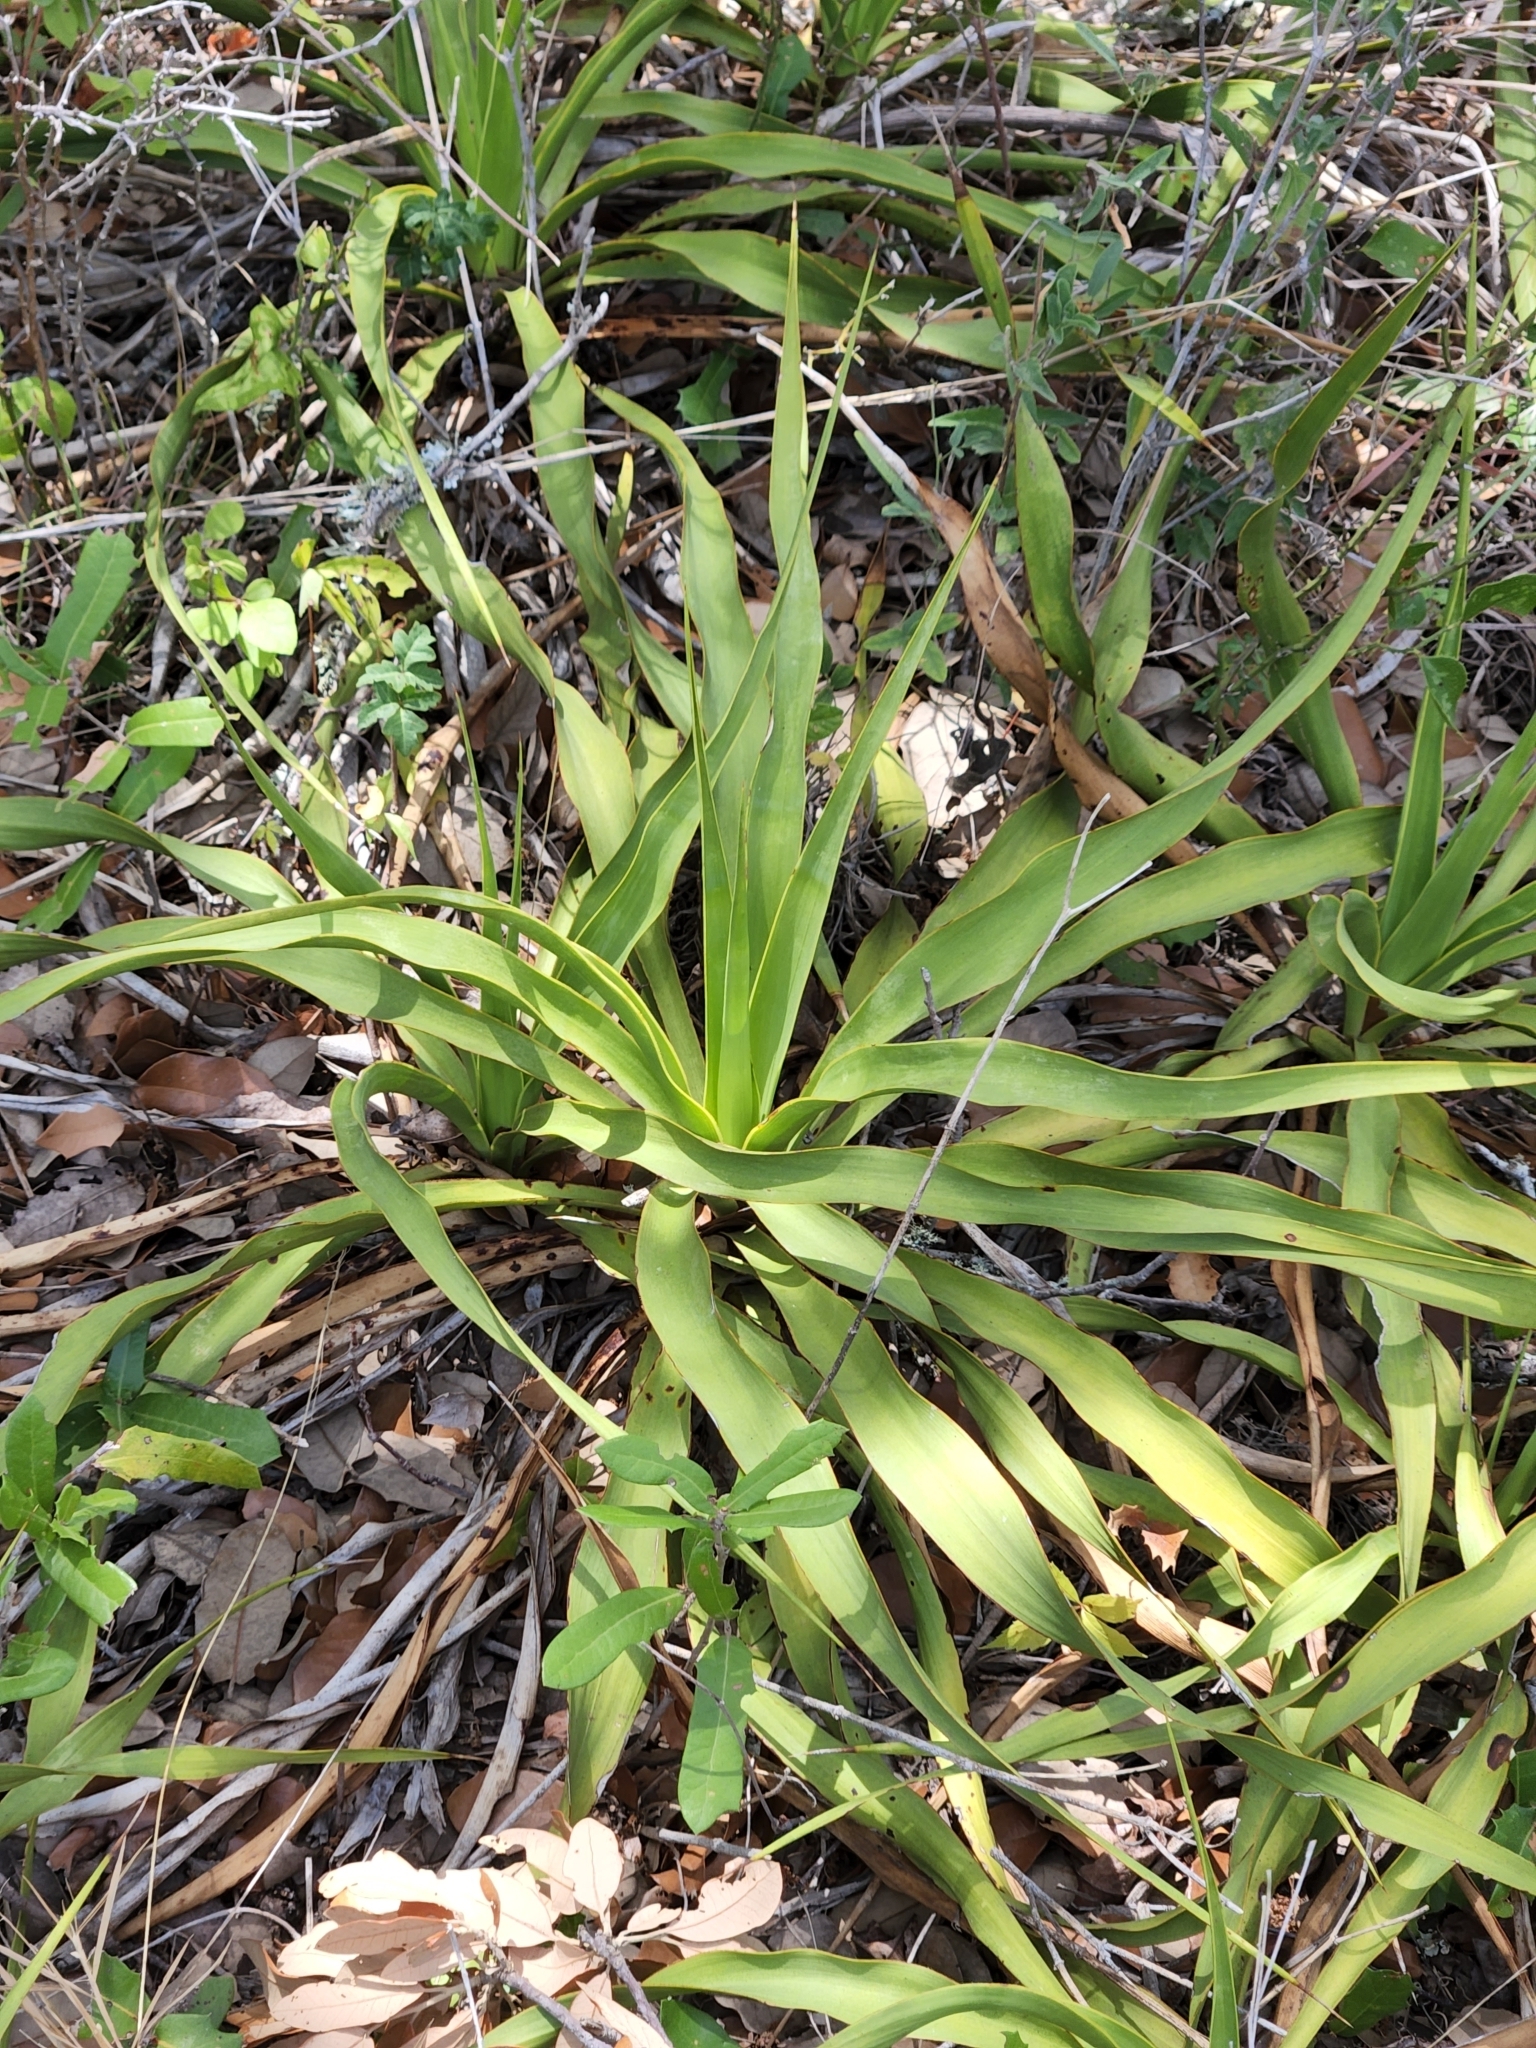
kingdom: Plantae
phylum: Tracheophyta
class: Liliopsida
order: Asparagales
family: Asparagaceae
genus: Yucca
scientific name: Yucca rupicola
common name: Twisted-leaf spanish-dagger
